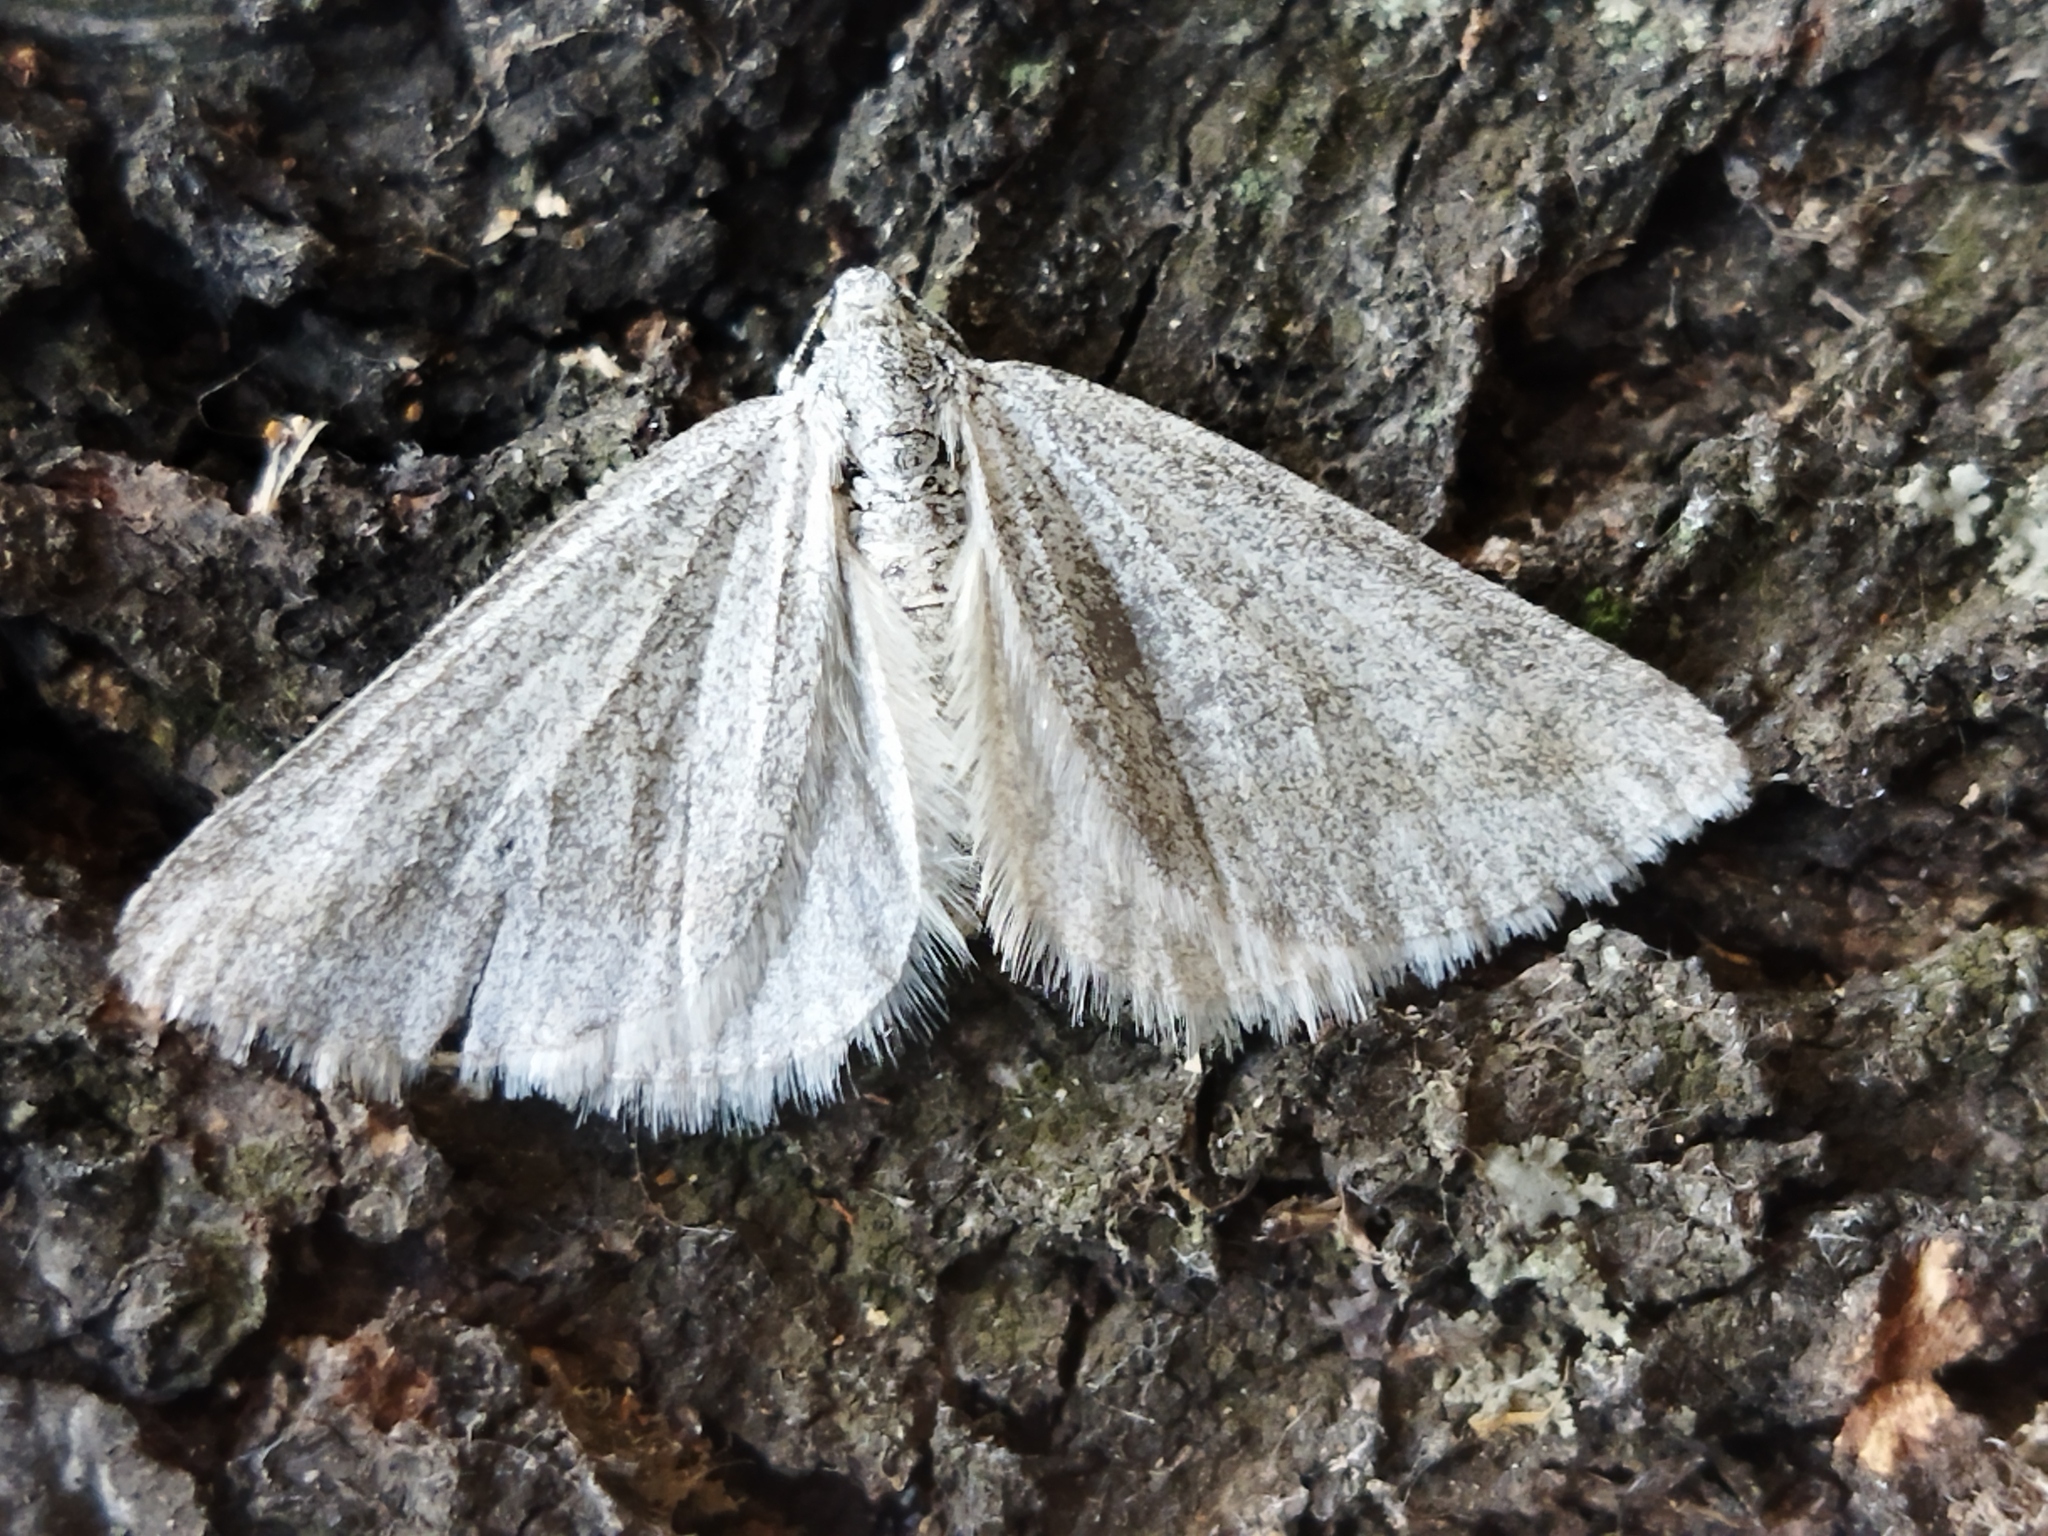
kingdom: Animalia
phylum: Arthropoda
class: Insecta
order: Lepidoptera
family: Geometridae
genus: Lithostege
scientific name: Lithostege griseata
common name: Grey carpet
